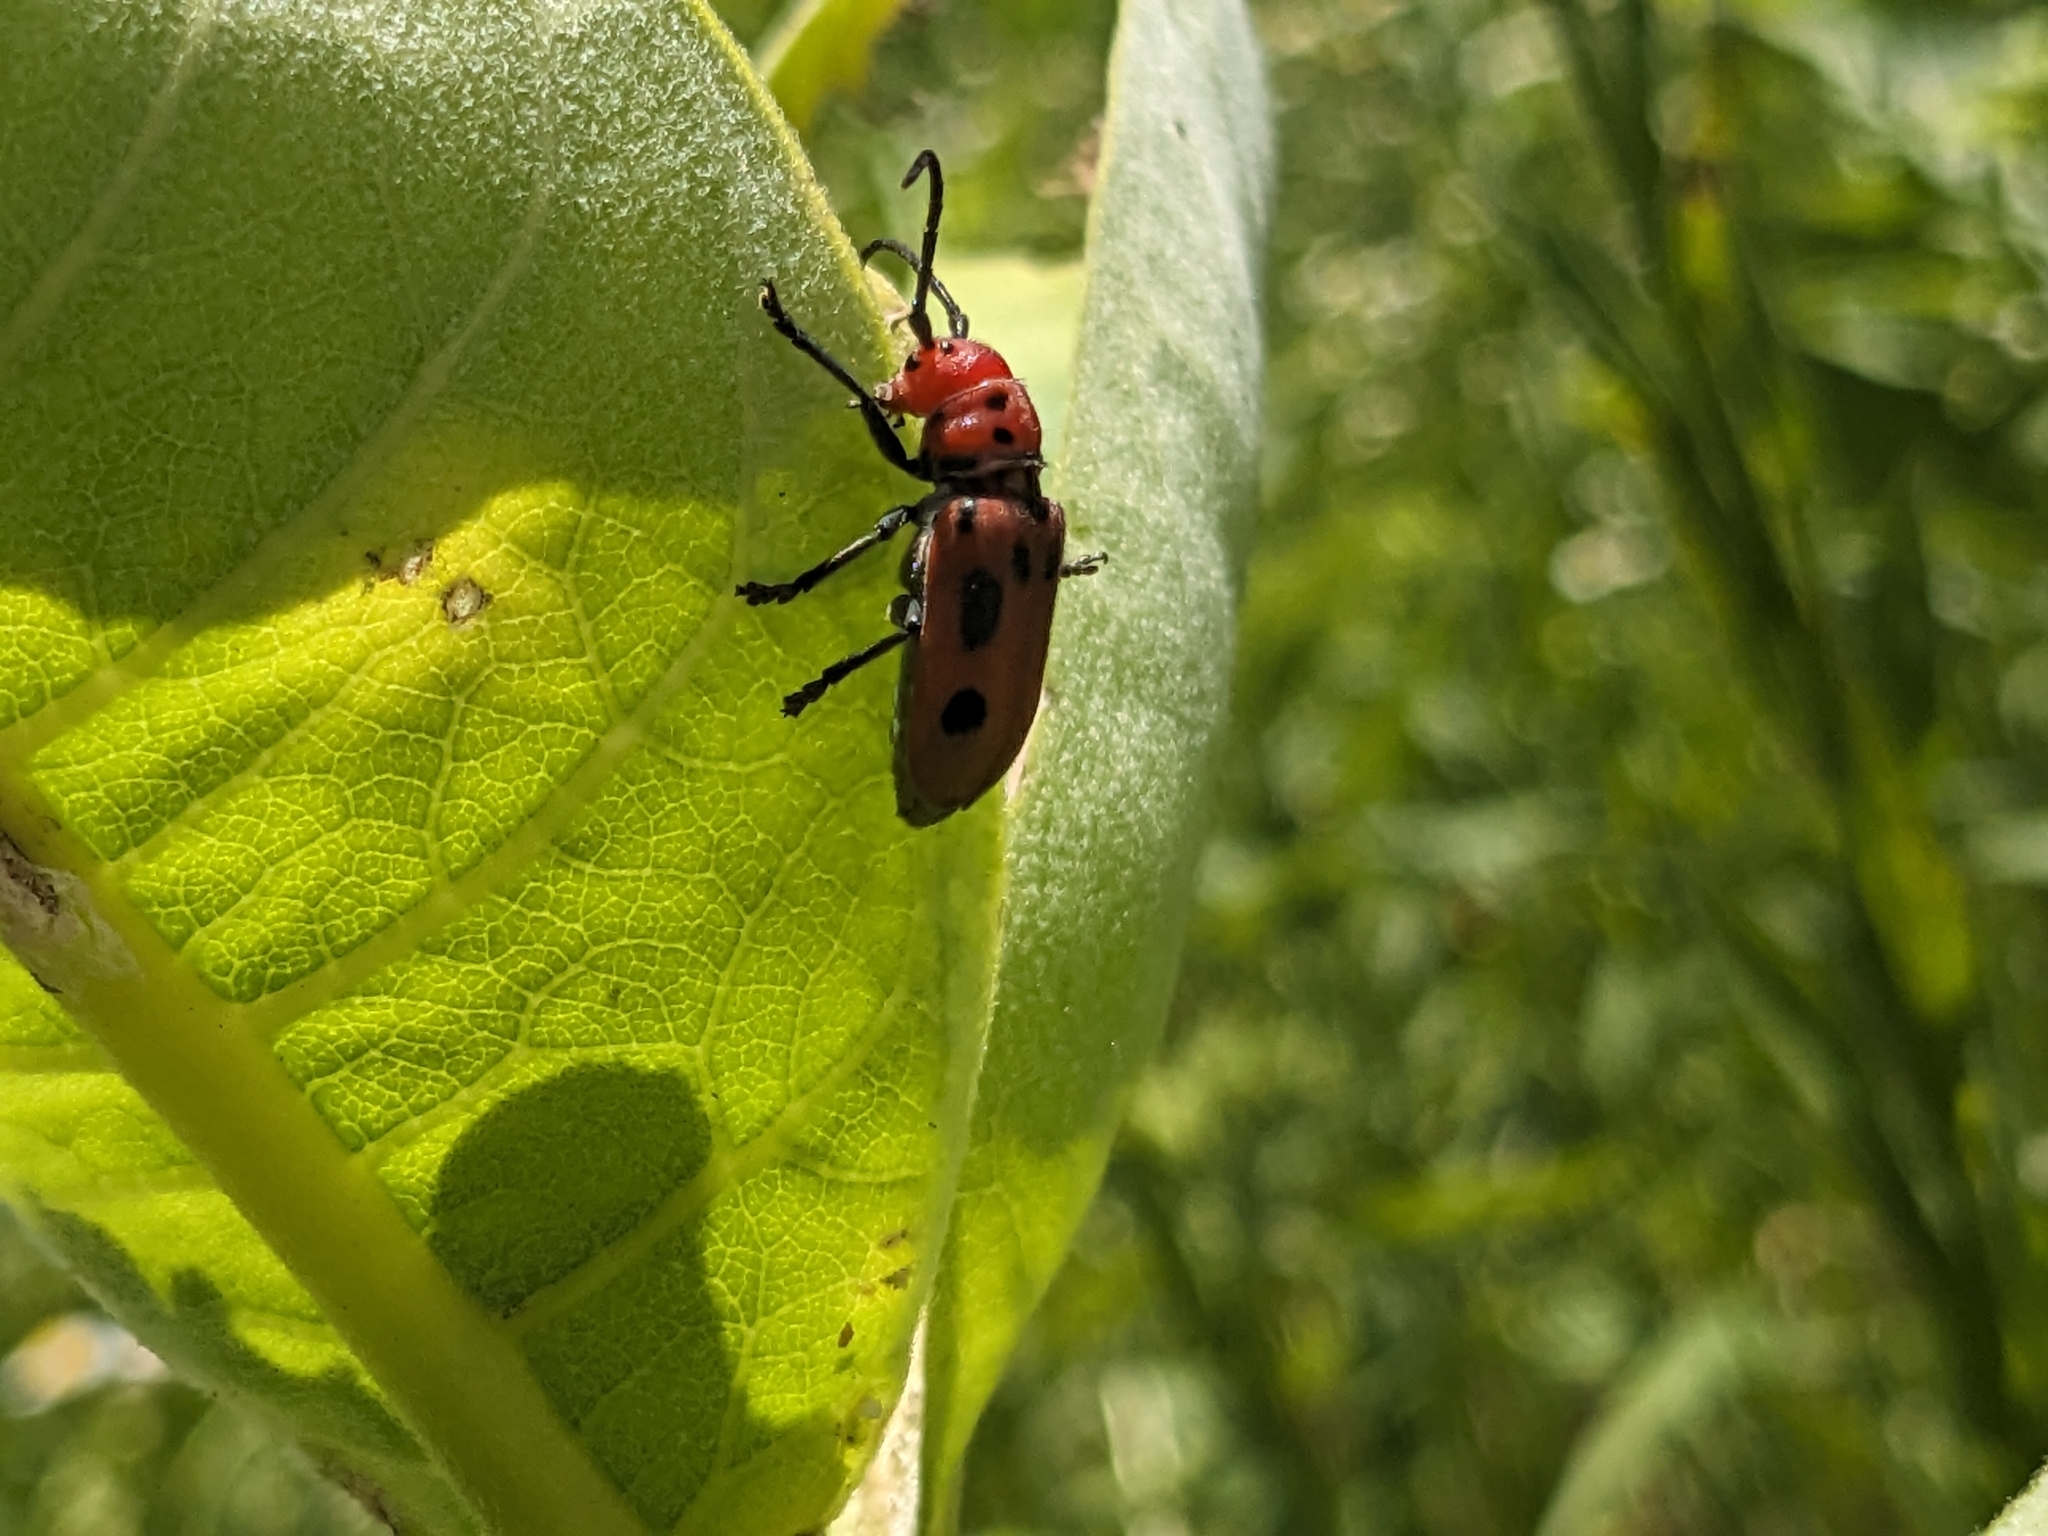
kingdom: Animalia
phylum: Arthropoda
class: Insecta
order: Coleoptera
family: Cerambycidae
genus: Tetraopes
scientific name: Tetraopes tetrophthalmus
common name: Red milkweed beetle
